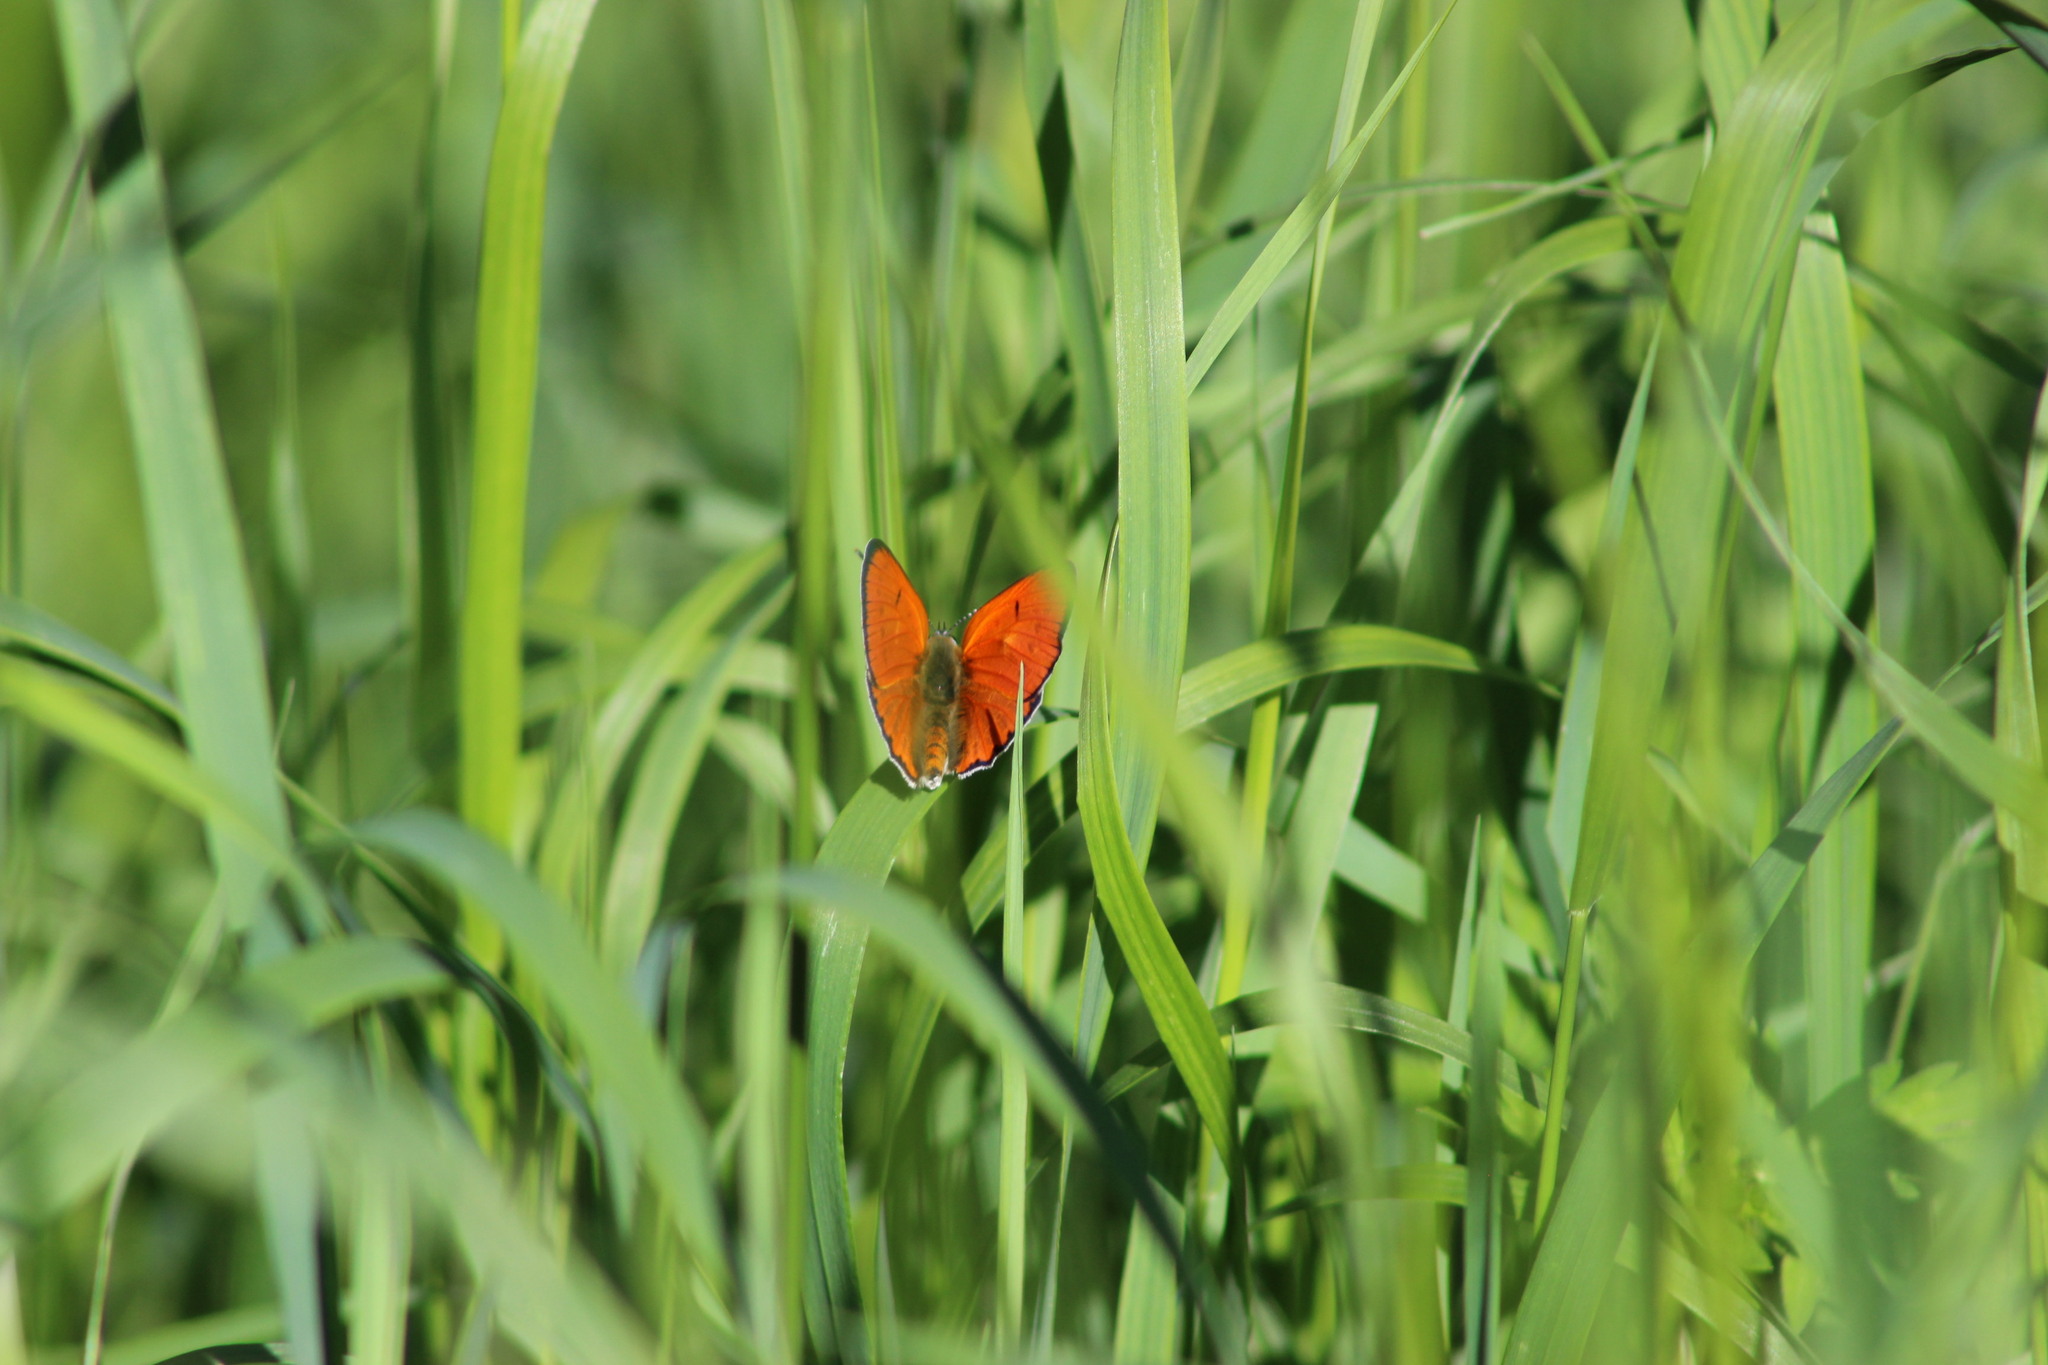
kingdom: Animalia
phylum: Arthropoda
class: Insecta
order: Lepidoptera
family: Lycaenidae
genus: Lycaena
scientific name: Lycaena dispar
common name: Large copper
